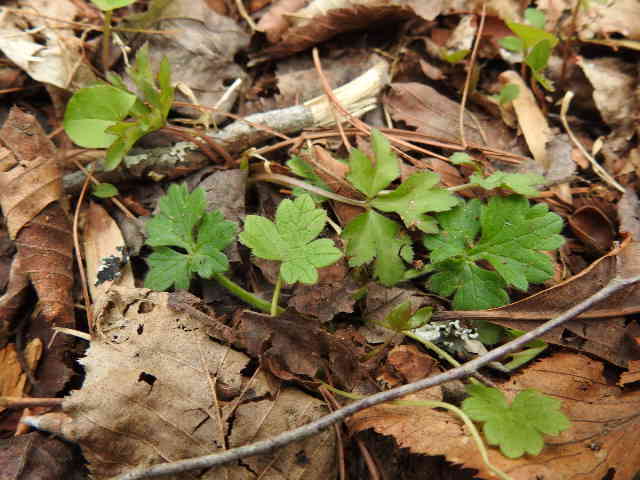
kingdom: Plantae
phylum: Tracheophyta
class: Magnoliopsida
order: Ranunculales
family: Ranunculaceae
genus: Ranunculus
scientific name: Ranunculus bulbosus
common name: Bulbous buttercup
